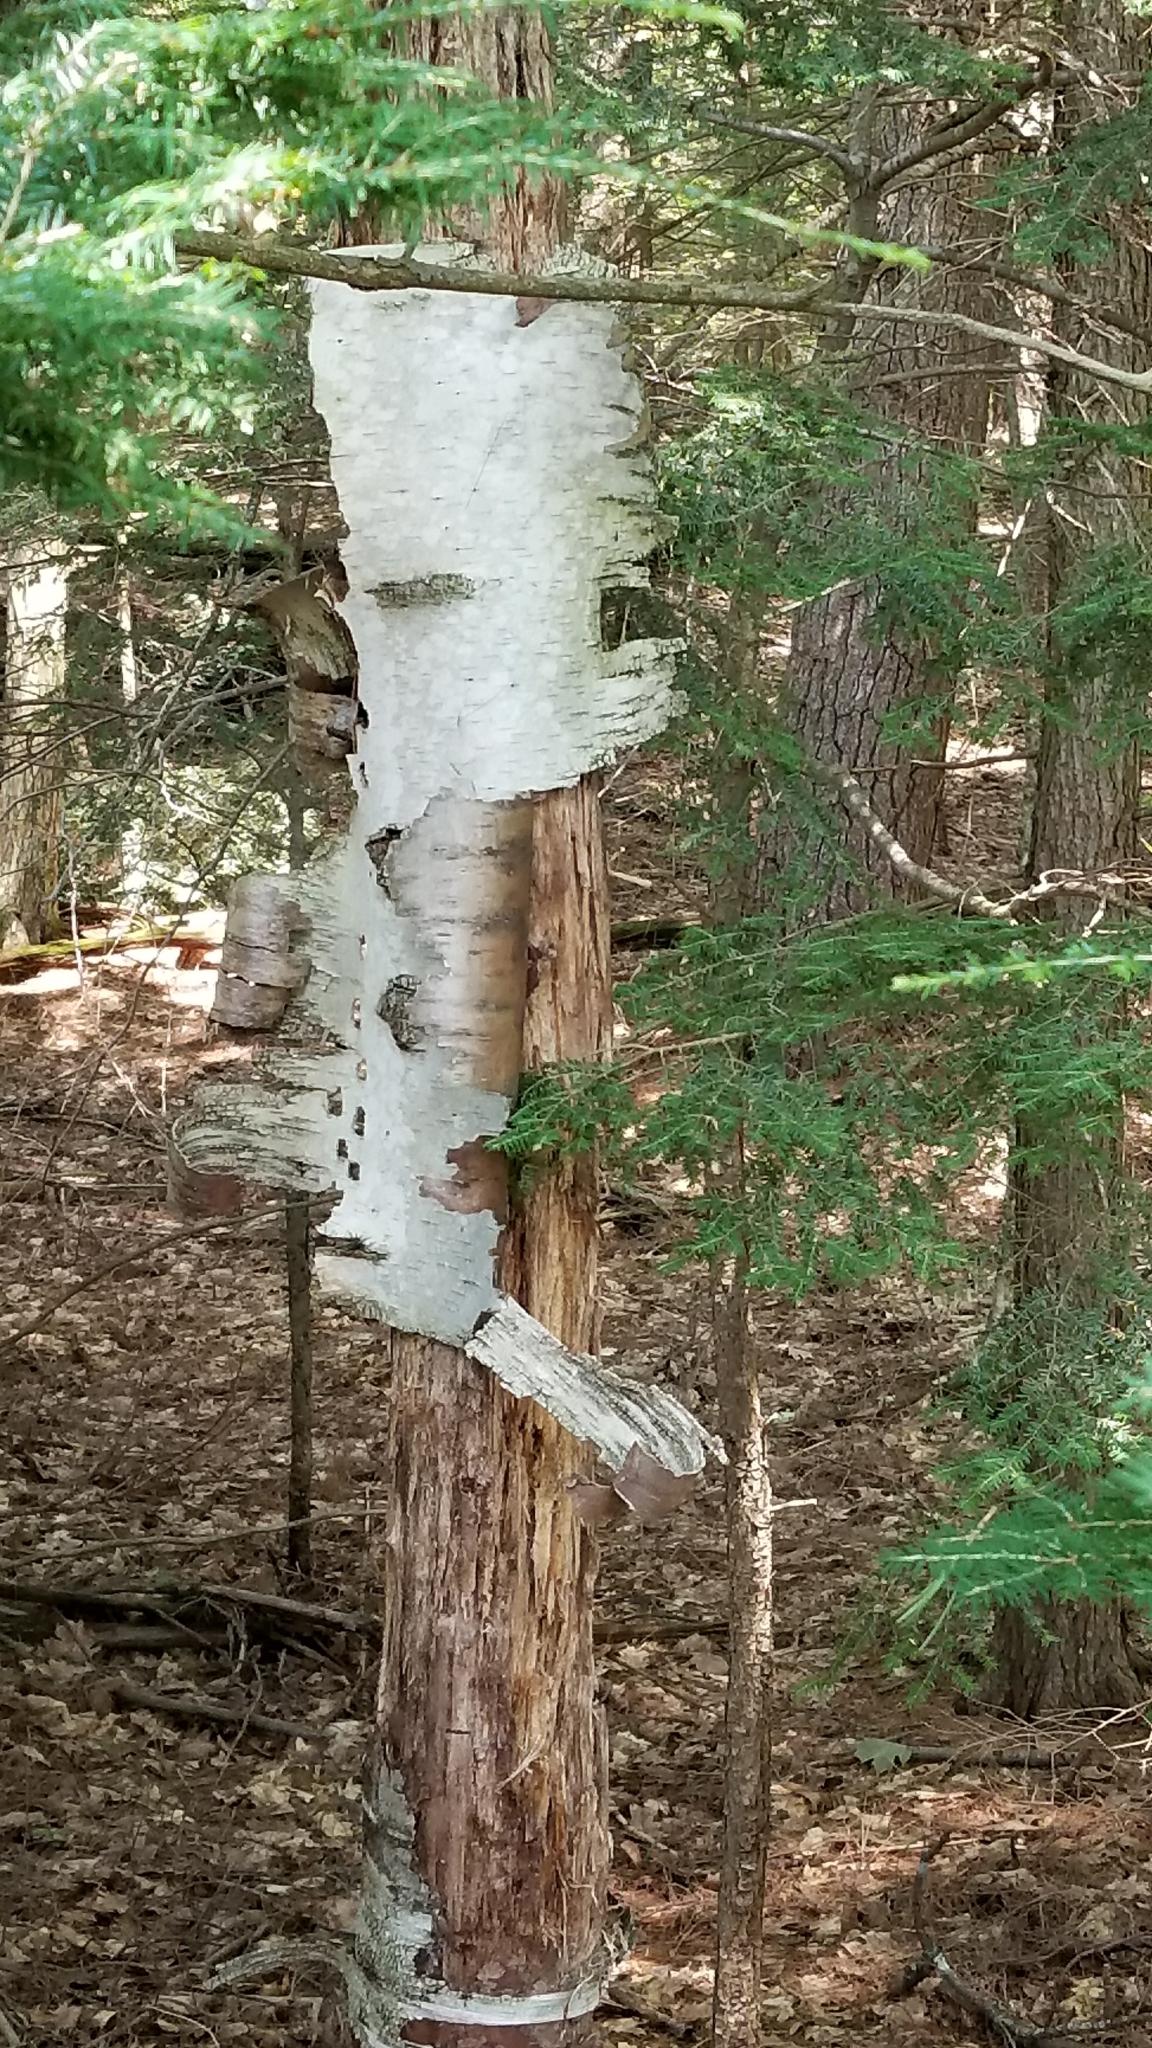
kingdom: Plantae
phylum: Tracheophyta
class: Magnoliopsida
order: Fagales
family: Betulaceae
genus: Betula
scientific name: Betula papyrifera
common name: Paper birch
